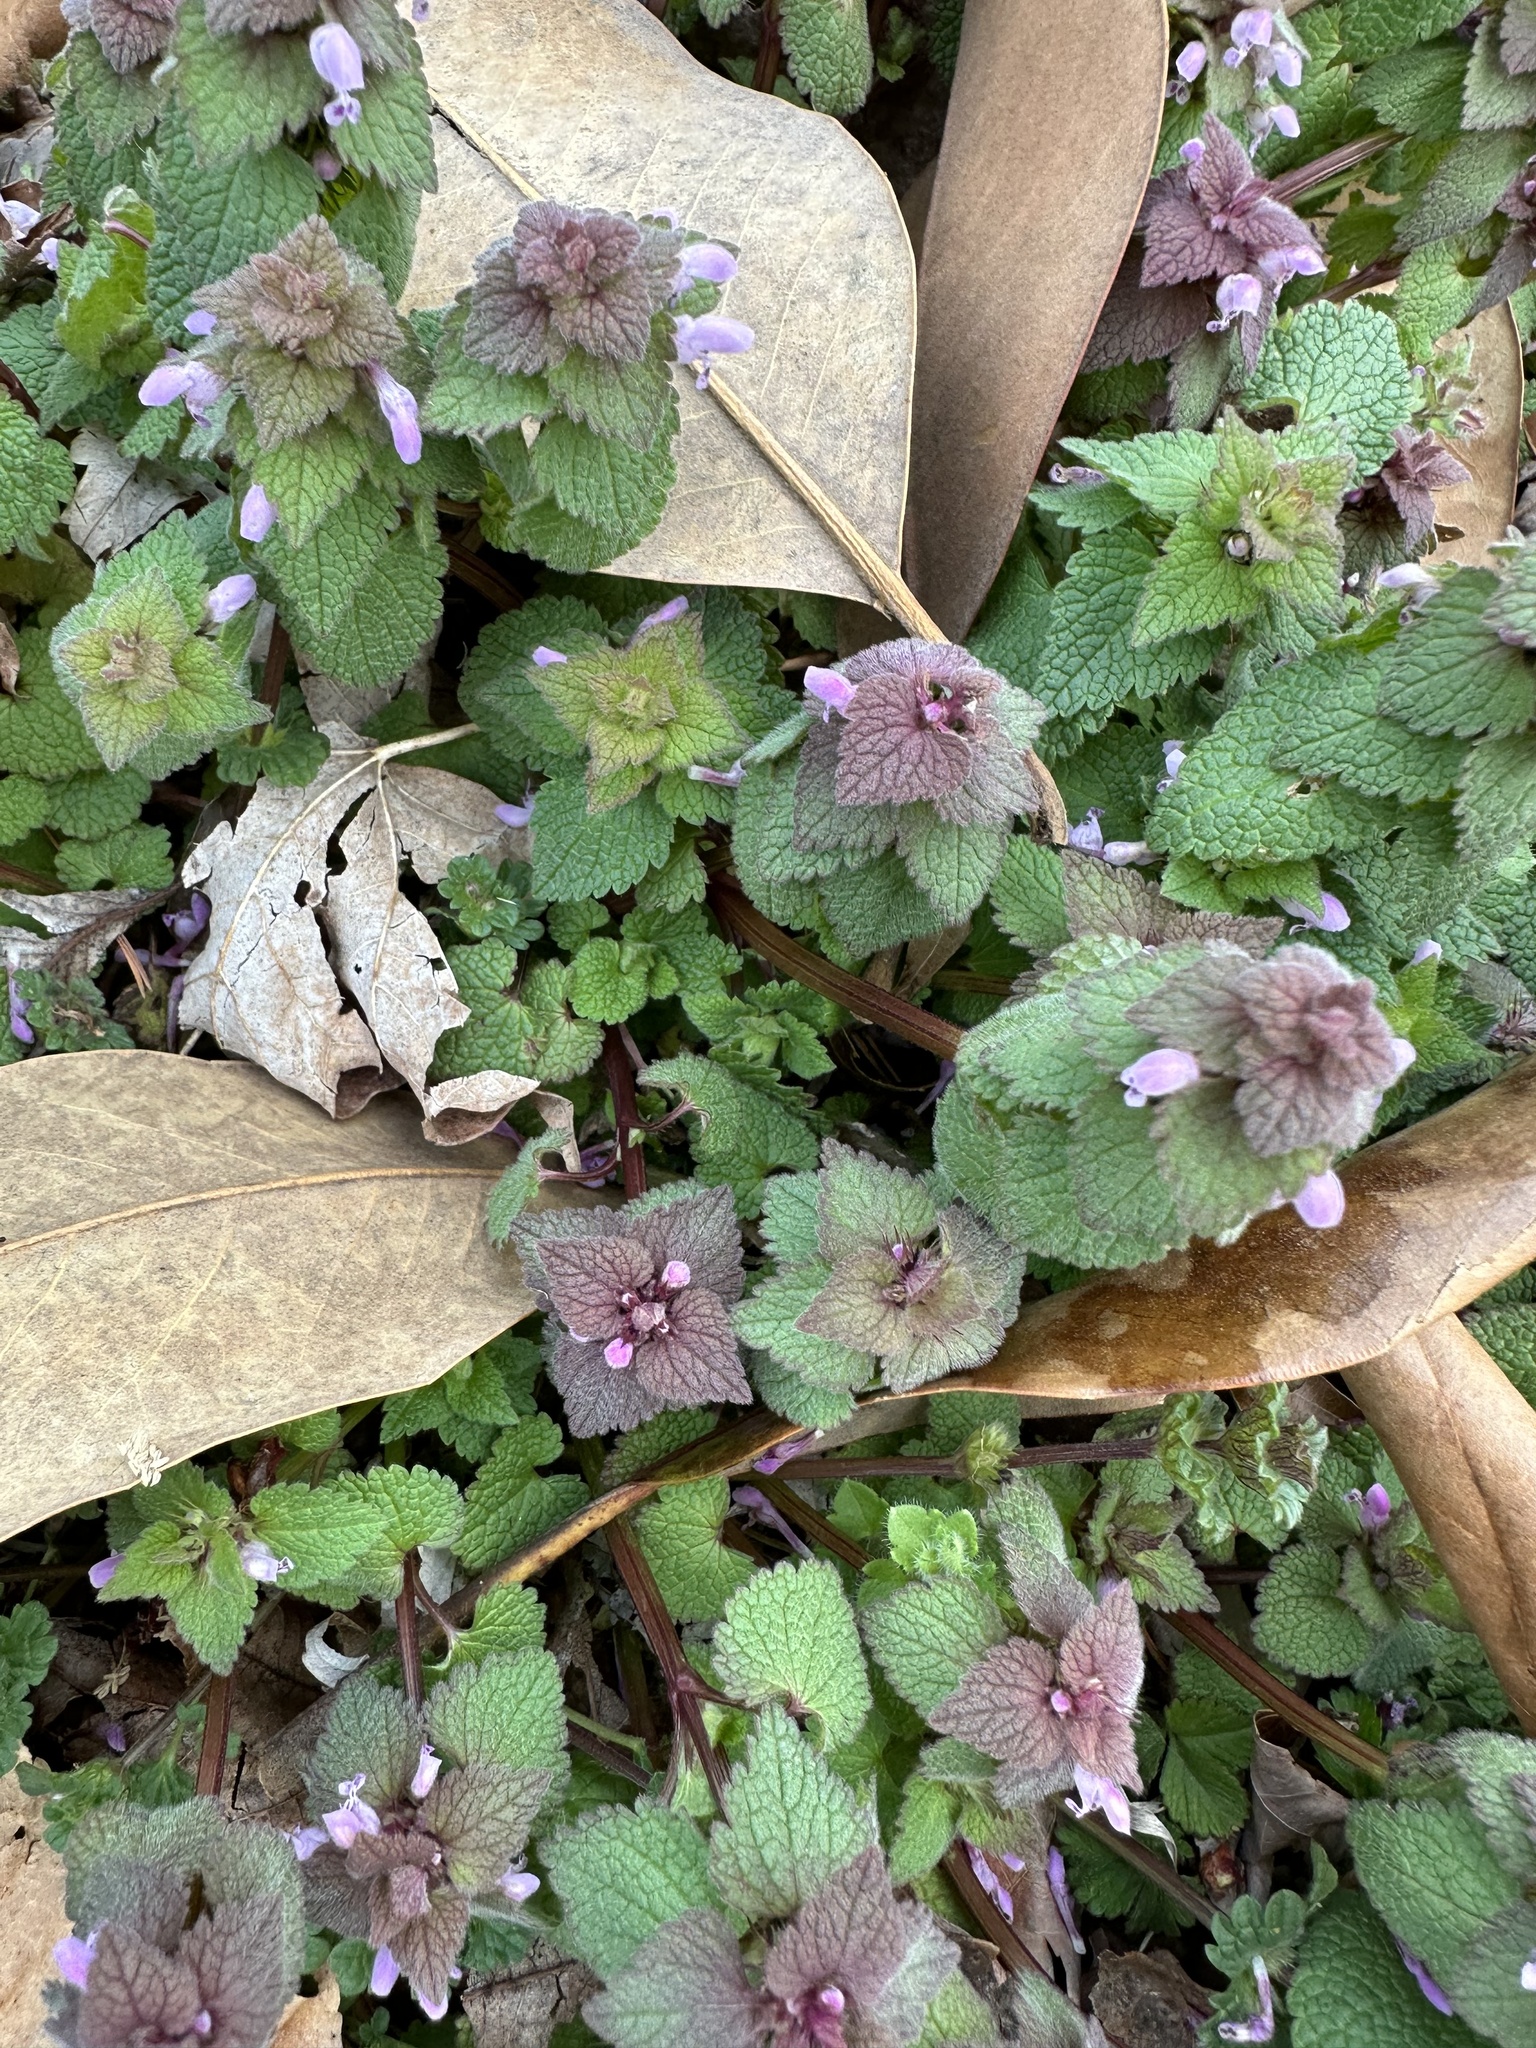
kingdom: Plantae
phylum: Tracheophyta
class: Magnoliopsida
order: Lamiales
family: Lamiaceae
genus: Lamium
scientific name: Lamium purpureum
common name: Red dead-nettle
